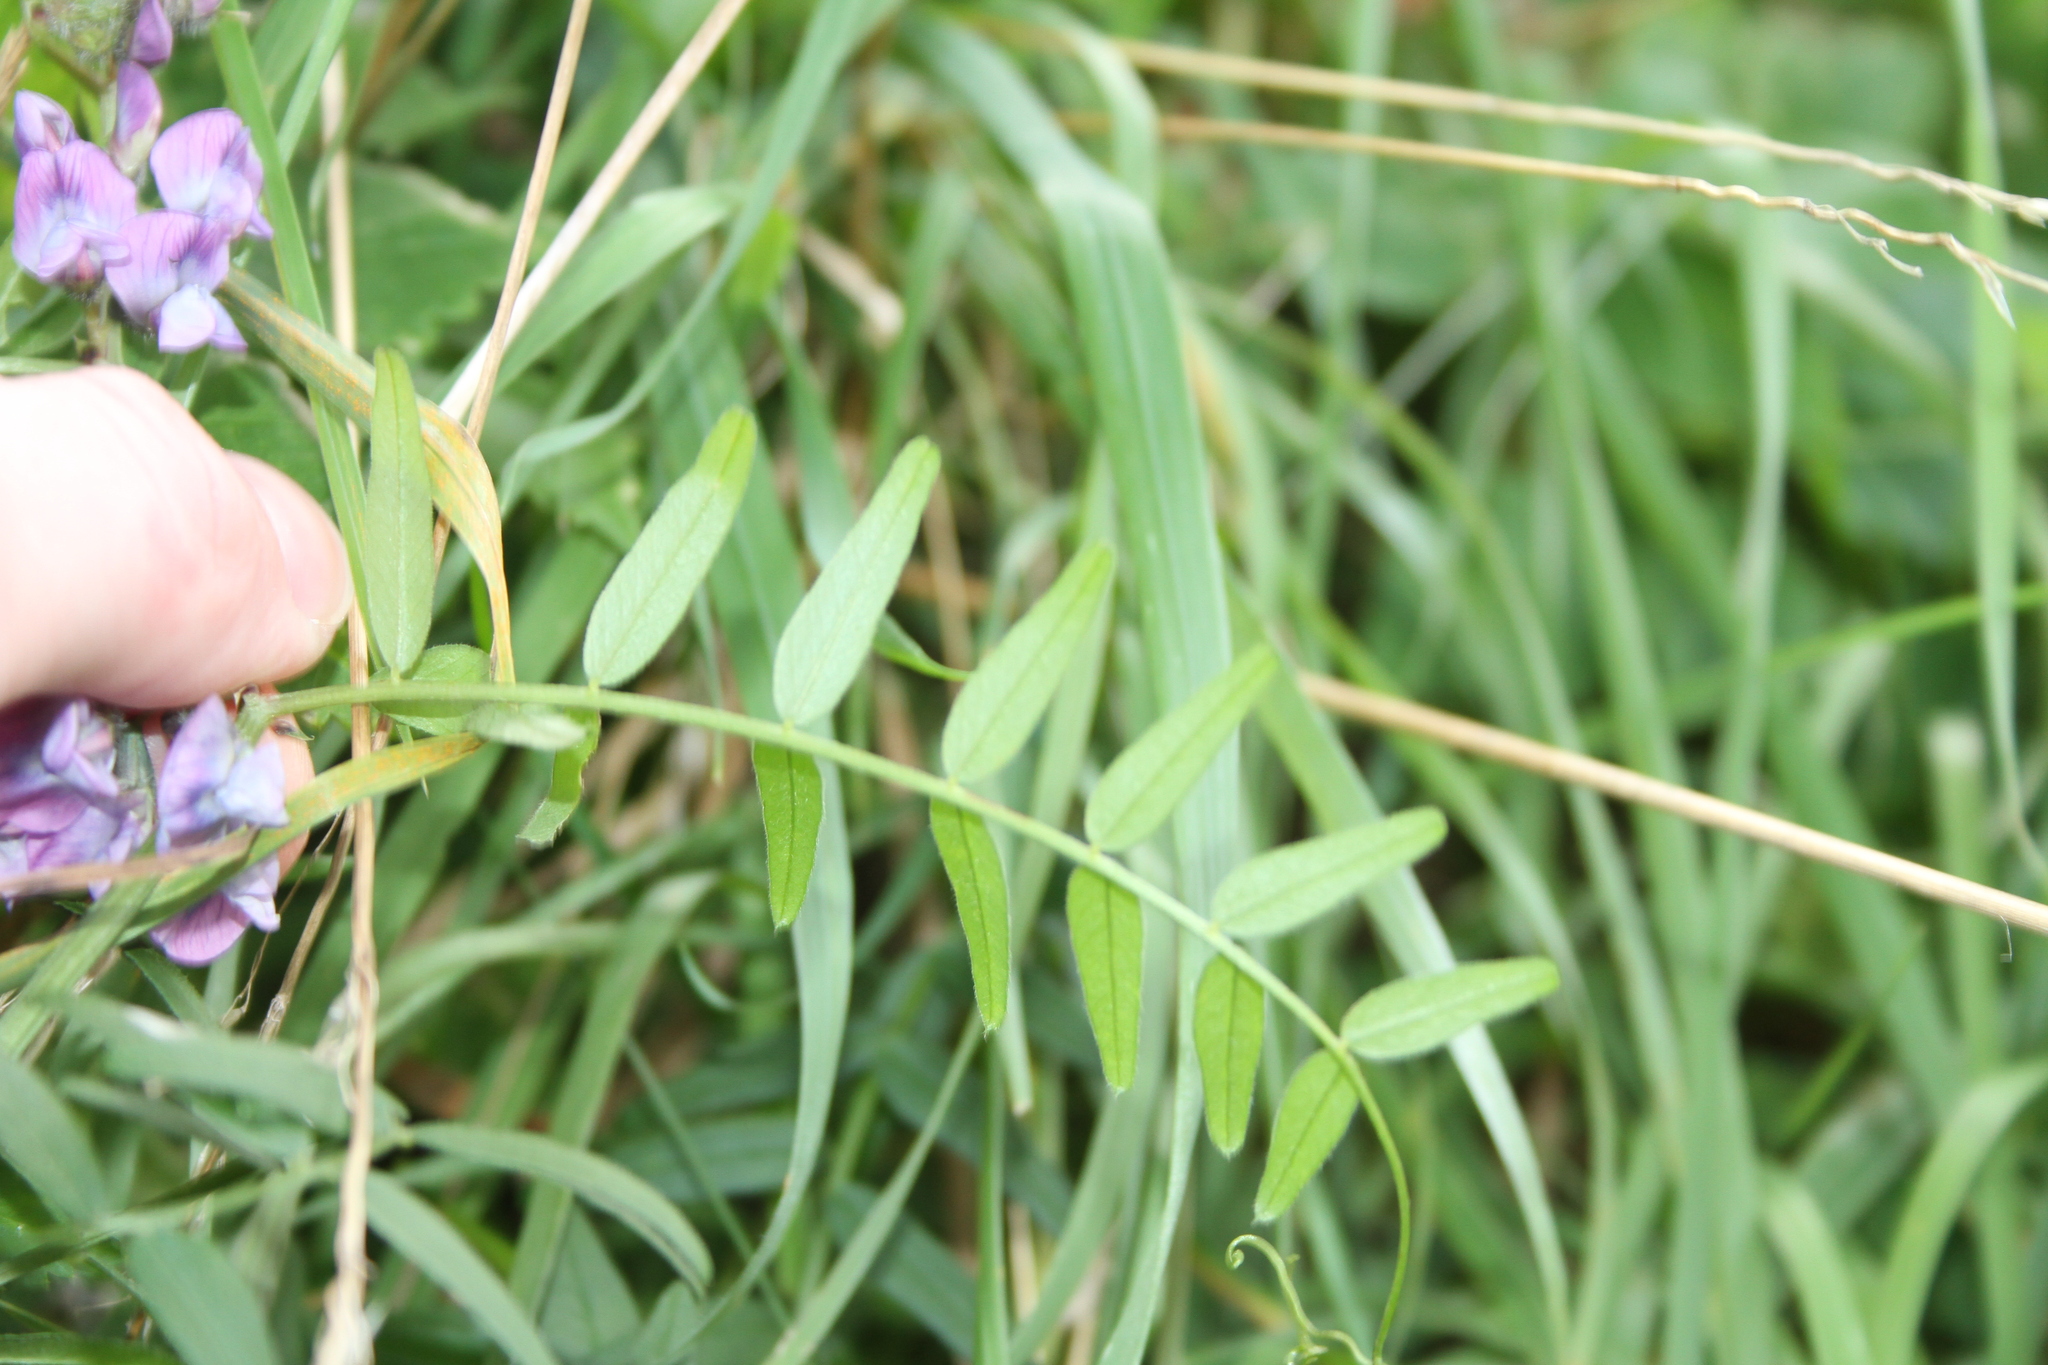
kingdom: Plantae
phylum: Tracheophyta
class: Magnoliopsida
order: Fabales
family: Fabaceae
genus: Vicia
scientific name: Vicia sepium
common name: Bush vetch
